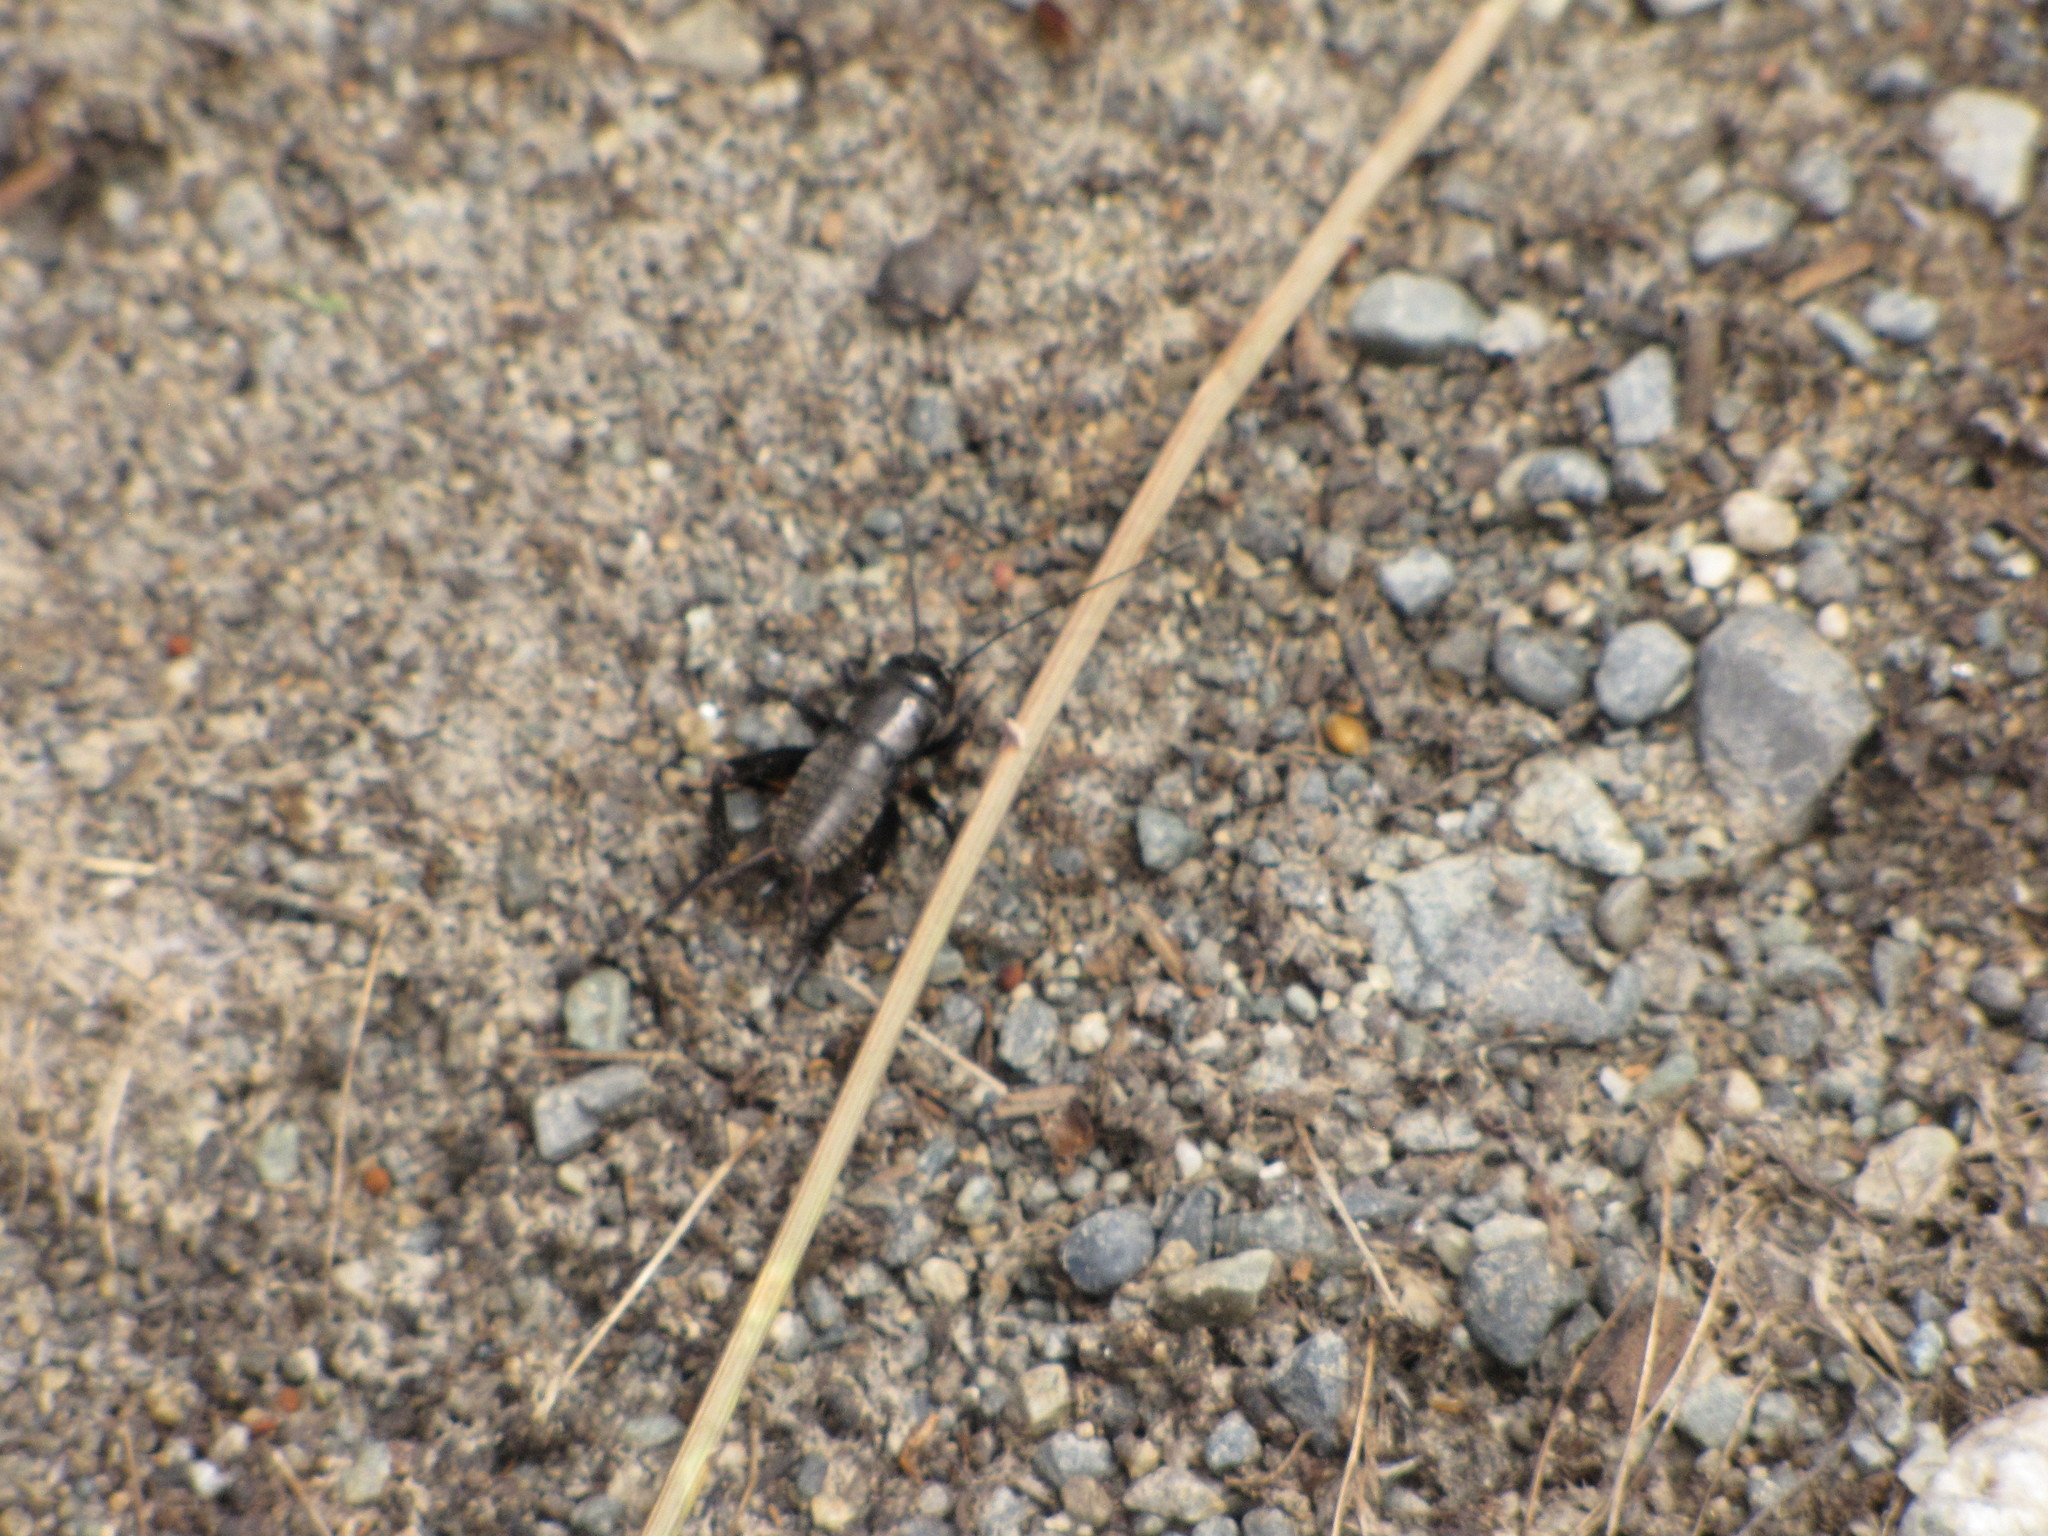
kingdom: Animalia
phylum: Arthropoda
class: Insecta
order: Orthoptera
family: Gryllidae
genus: Gryllus
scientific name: Gryllus pennsylvanicus
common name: Fall field cricket
